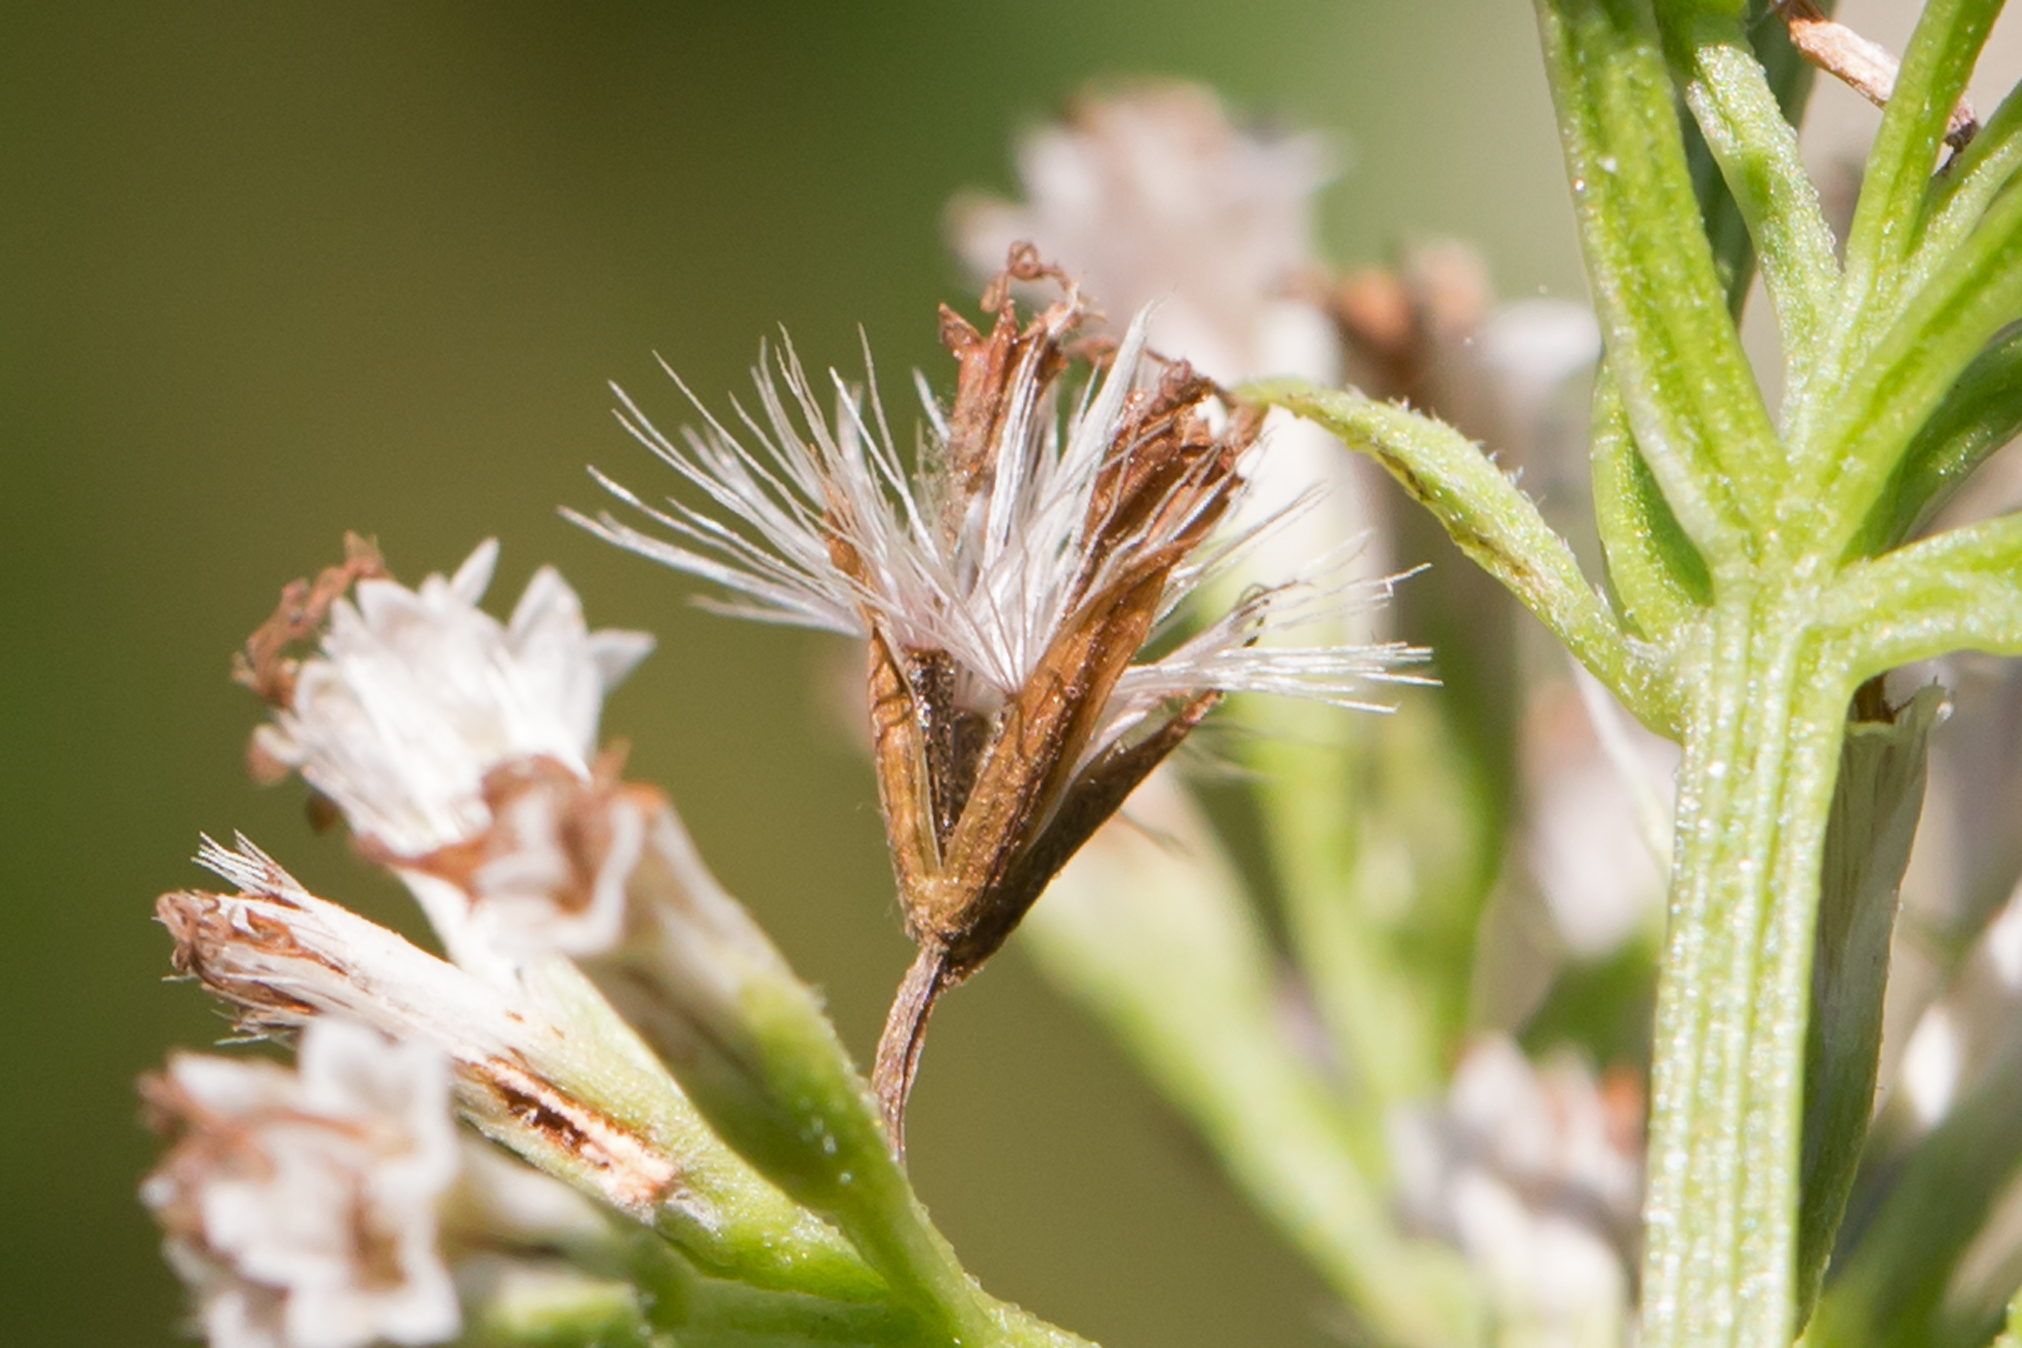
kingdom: Plantae
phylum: Tracheophyta
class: Magnoliopsida
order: Asterales
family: Asteraceae
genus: Mikania
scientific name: Mikania scandens
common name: Climbing hempvine
